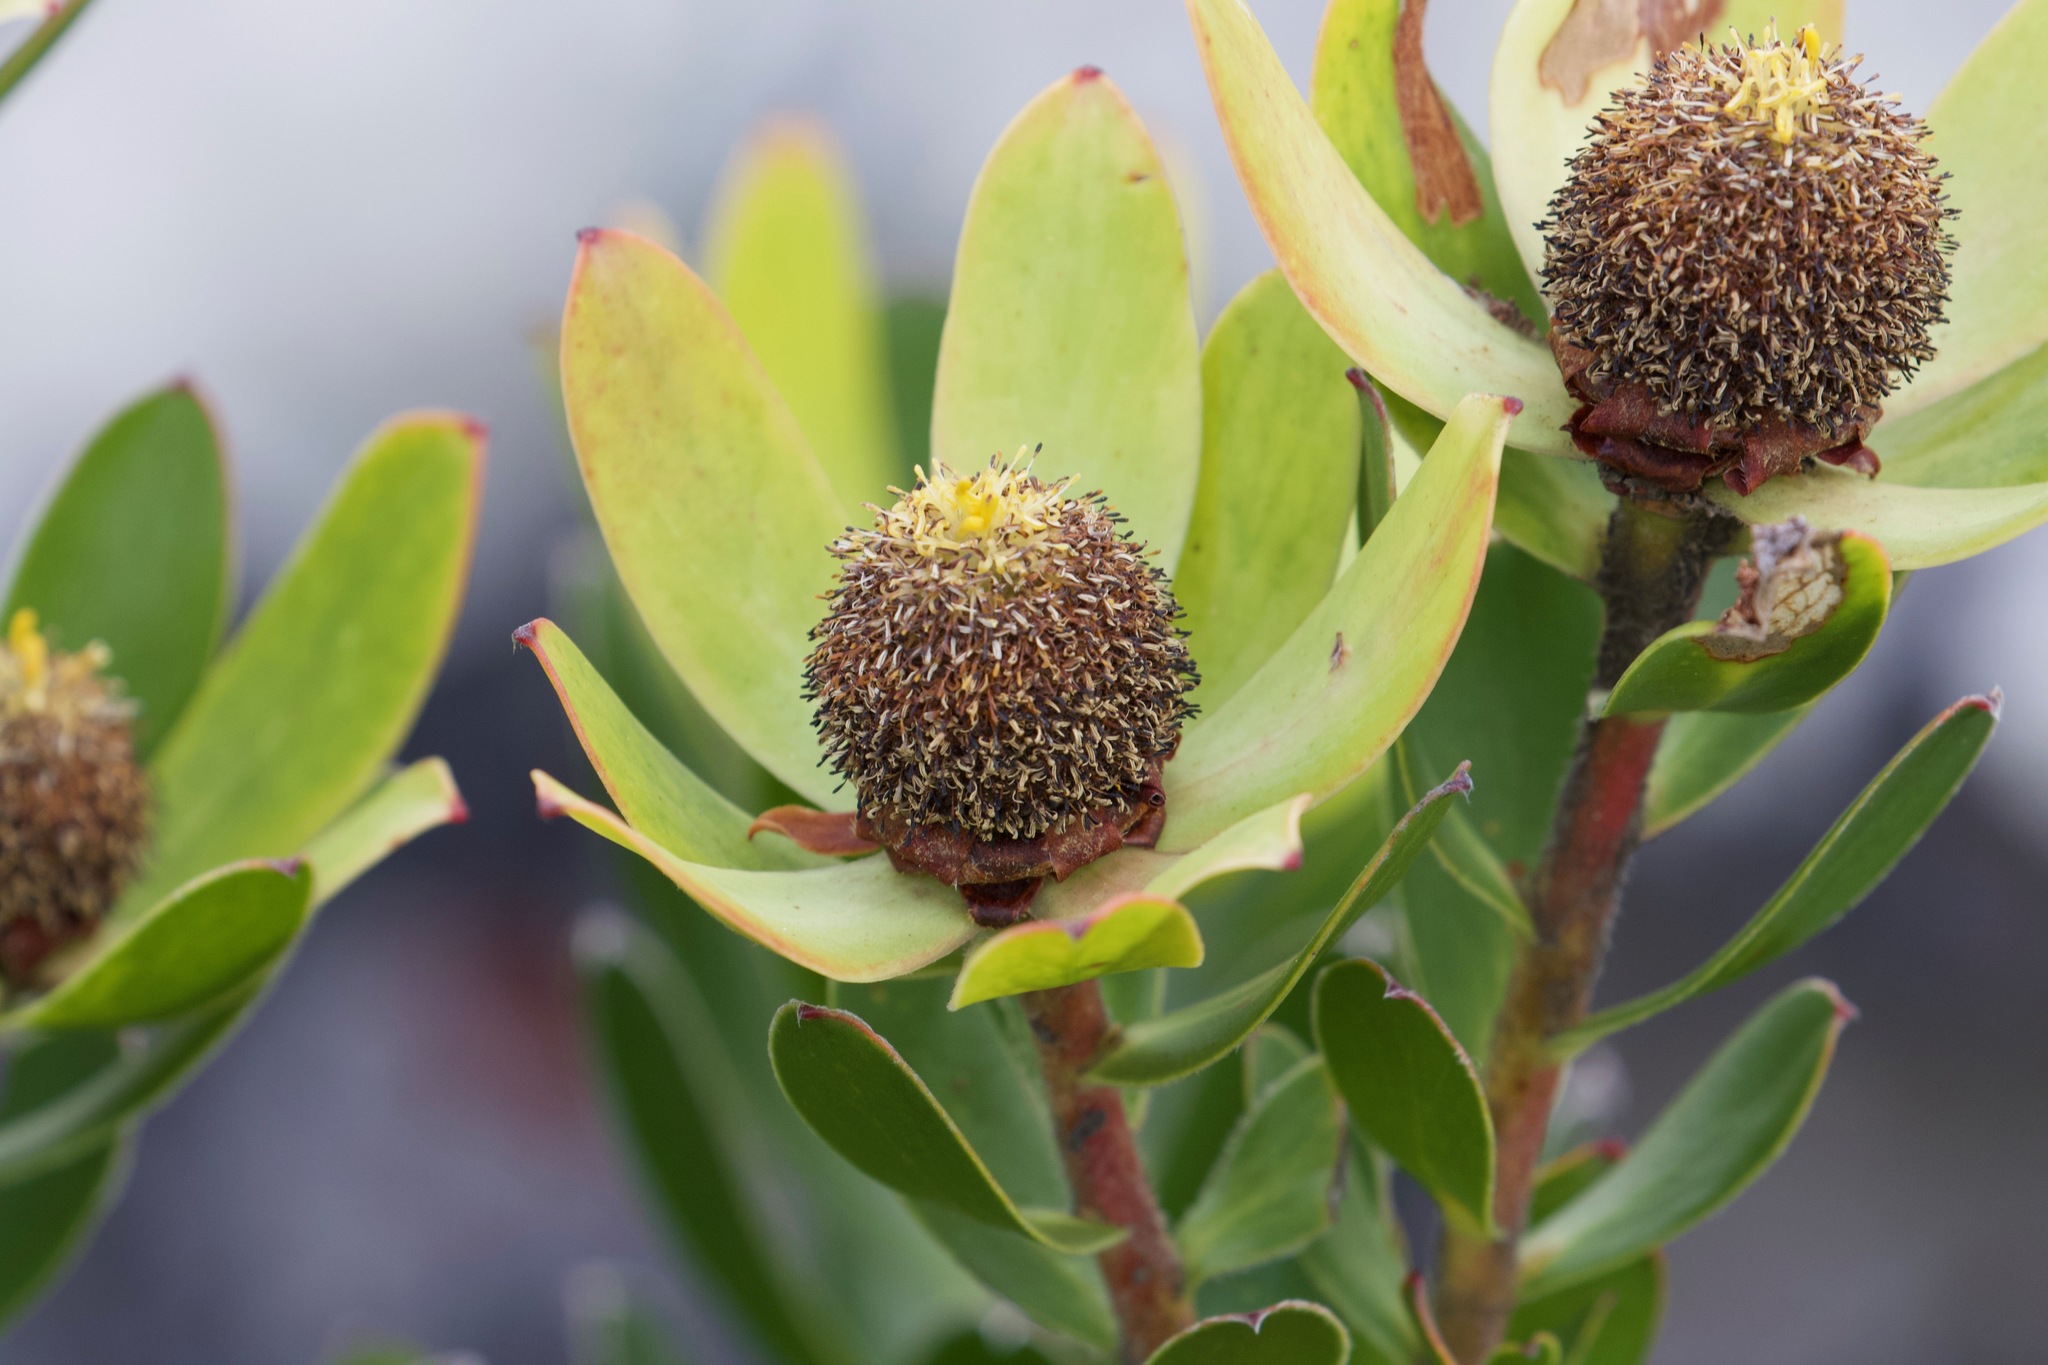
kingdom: Plantae
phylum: Tracheophyta
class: Magnoliopsida
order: Proteales
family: Proteaceae
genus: Leucadendron
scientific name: Leucadendron strobilinum
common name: Mountain rose
